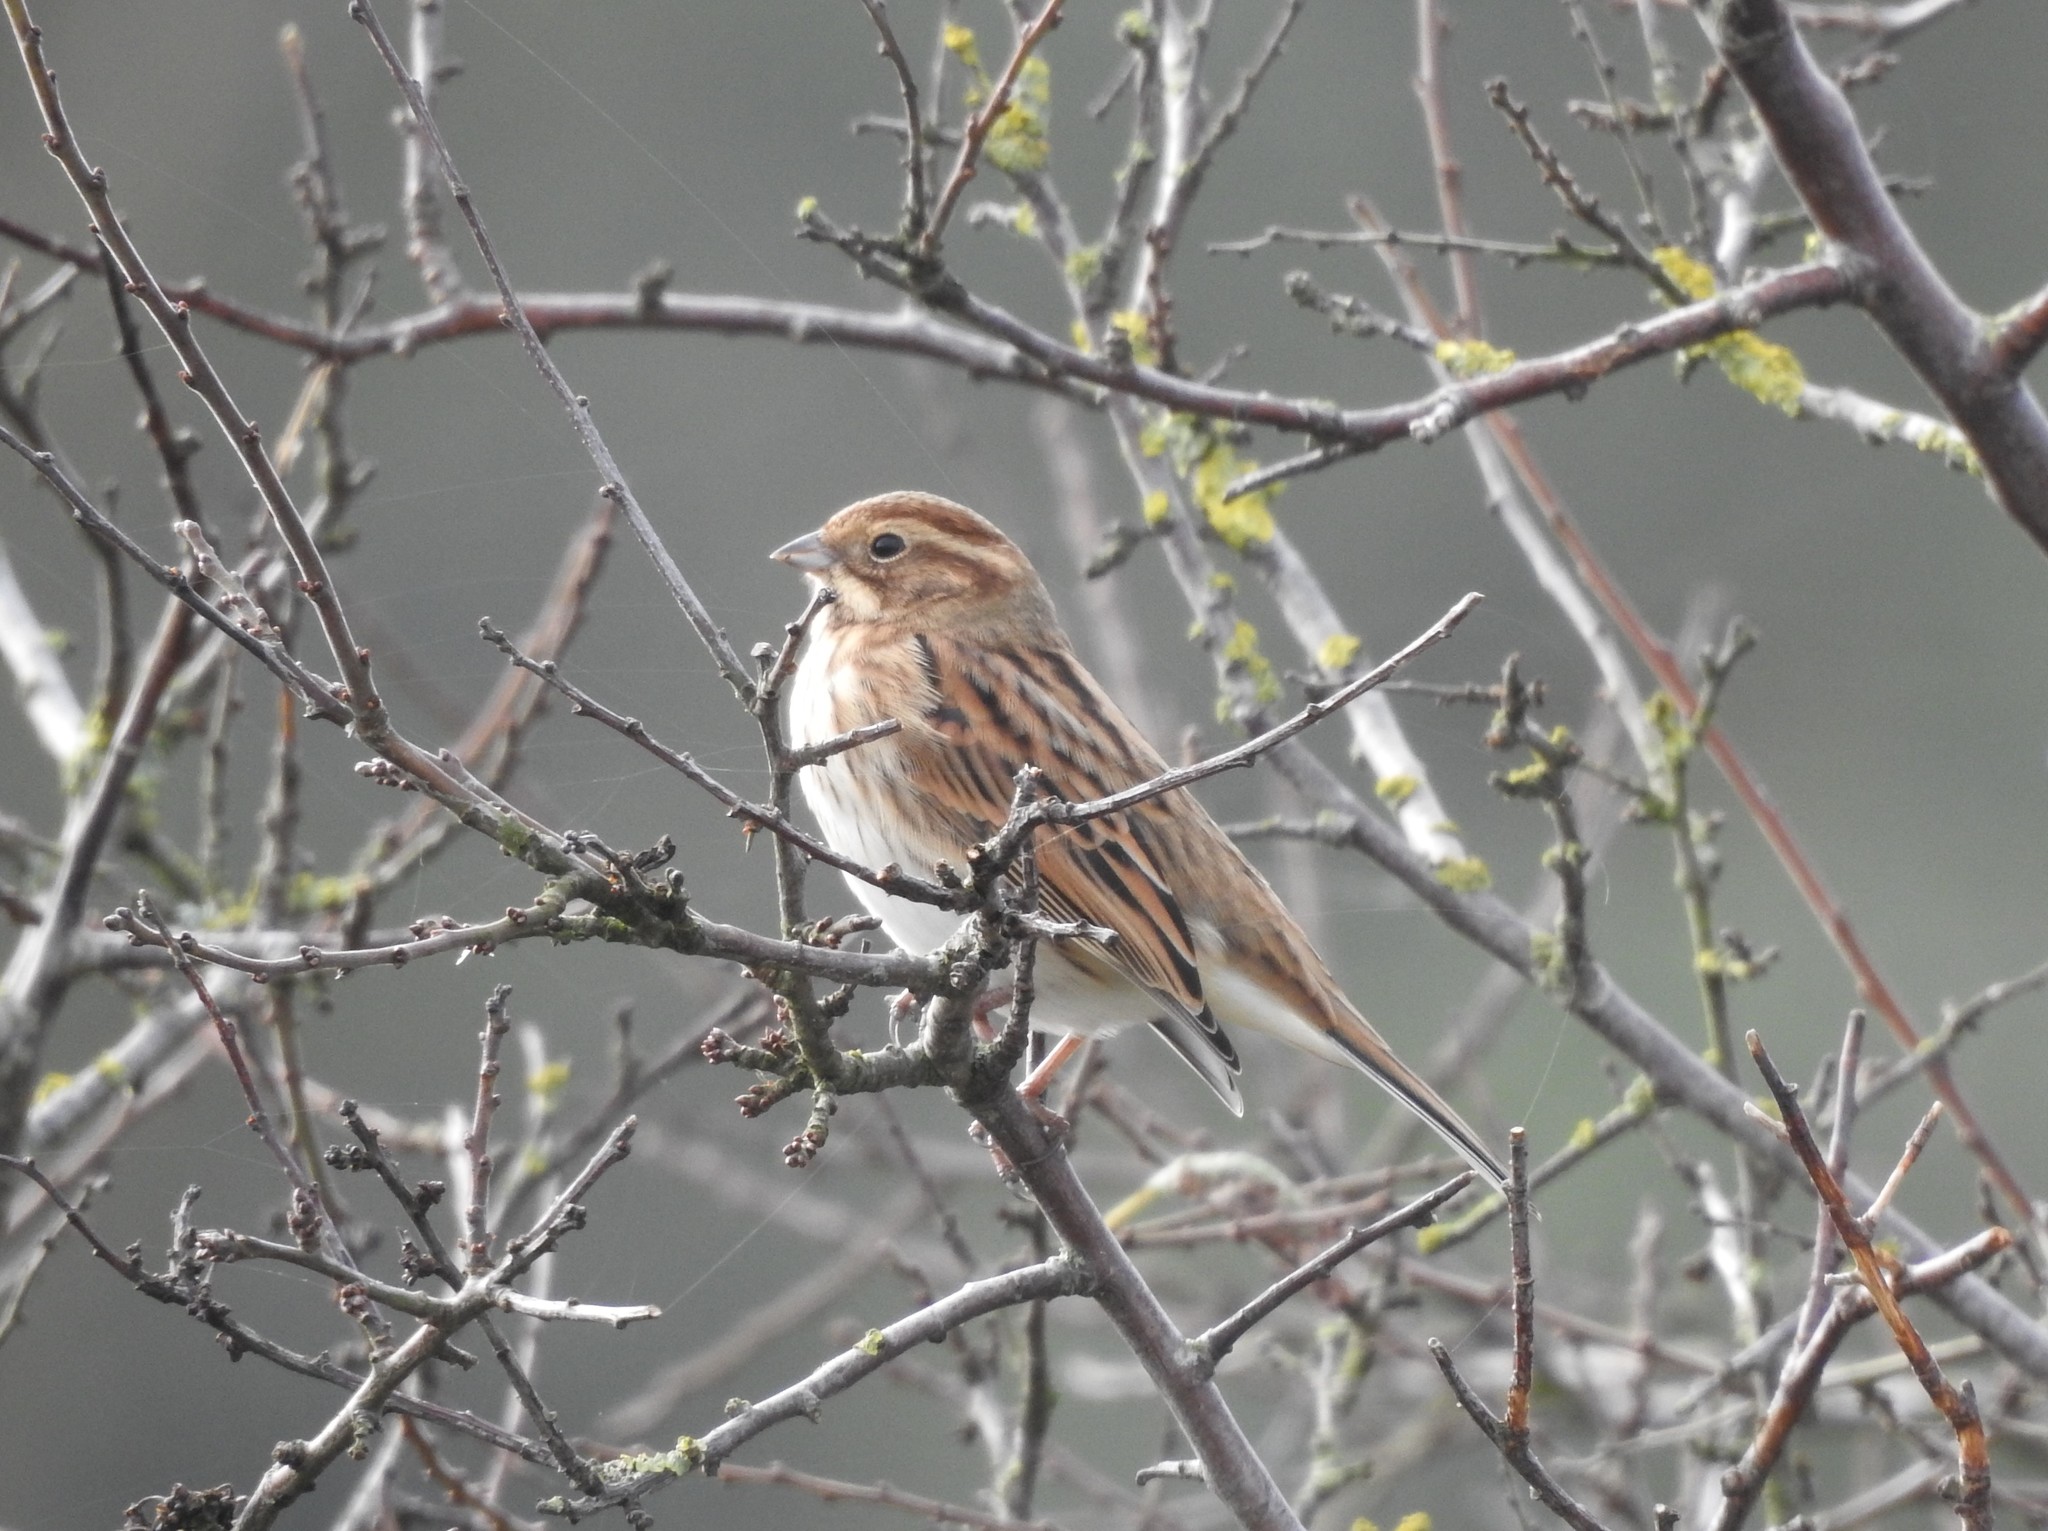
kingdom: Animalia
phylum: Chordata
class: Aves
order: Passeriformes
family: Emberizidae
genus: Emberiza
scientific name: Emberiza schoeniclus
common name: Reed bunting
